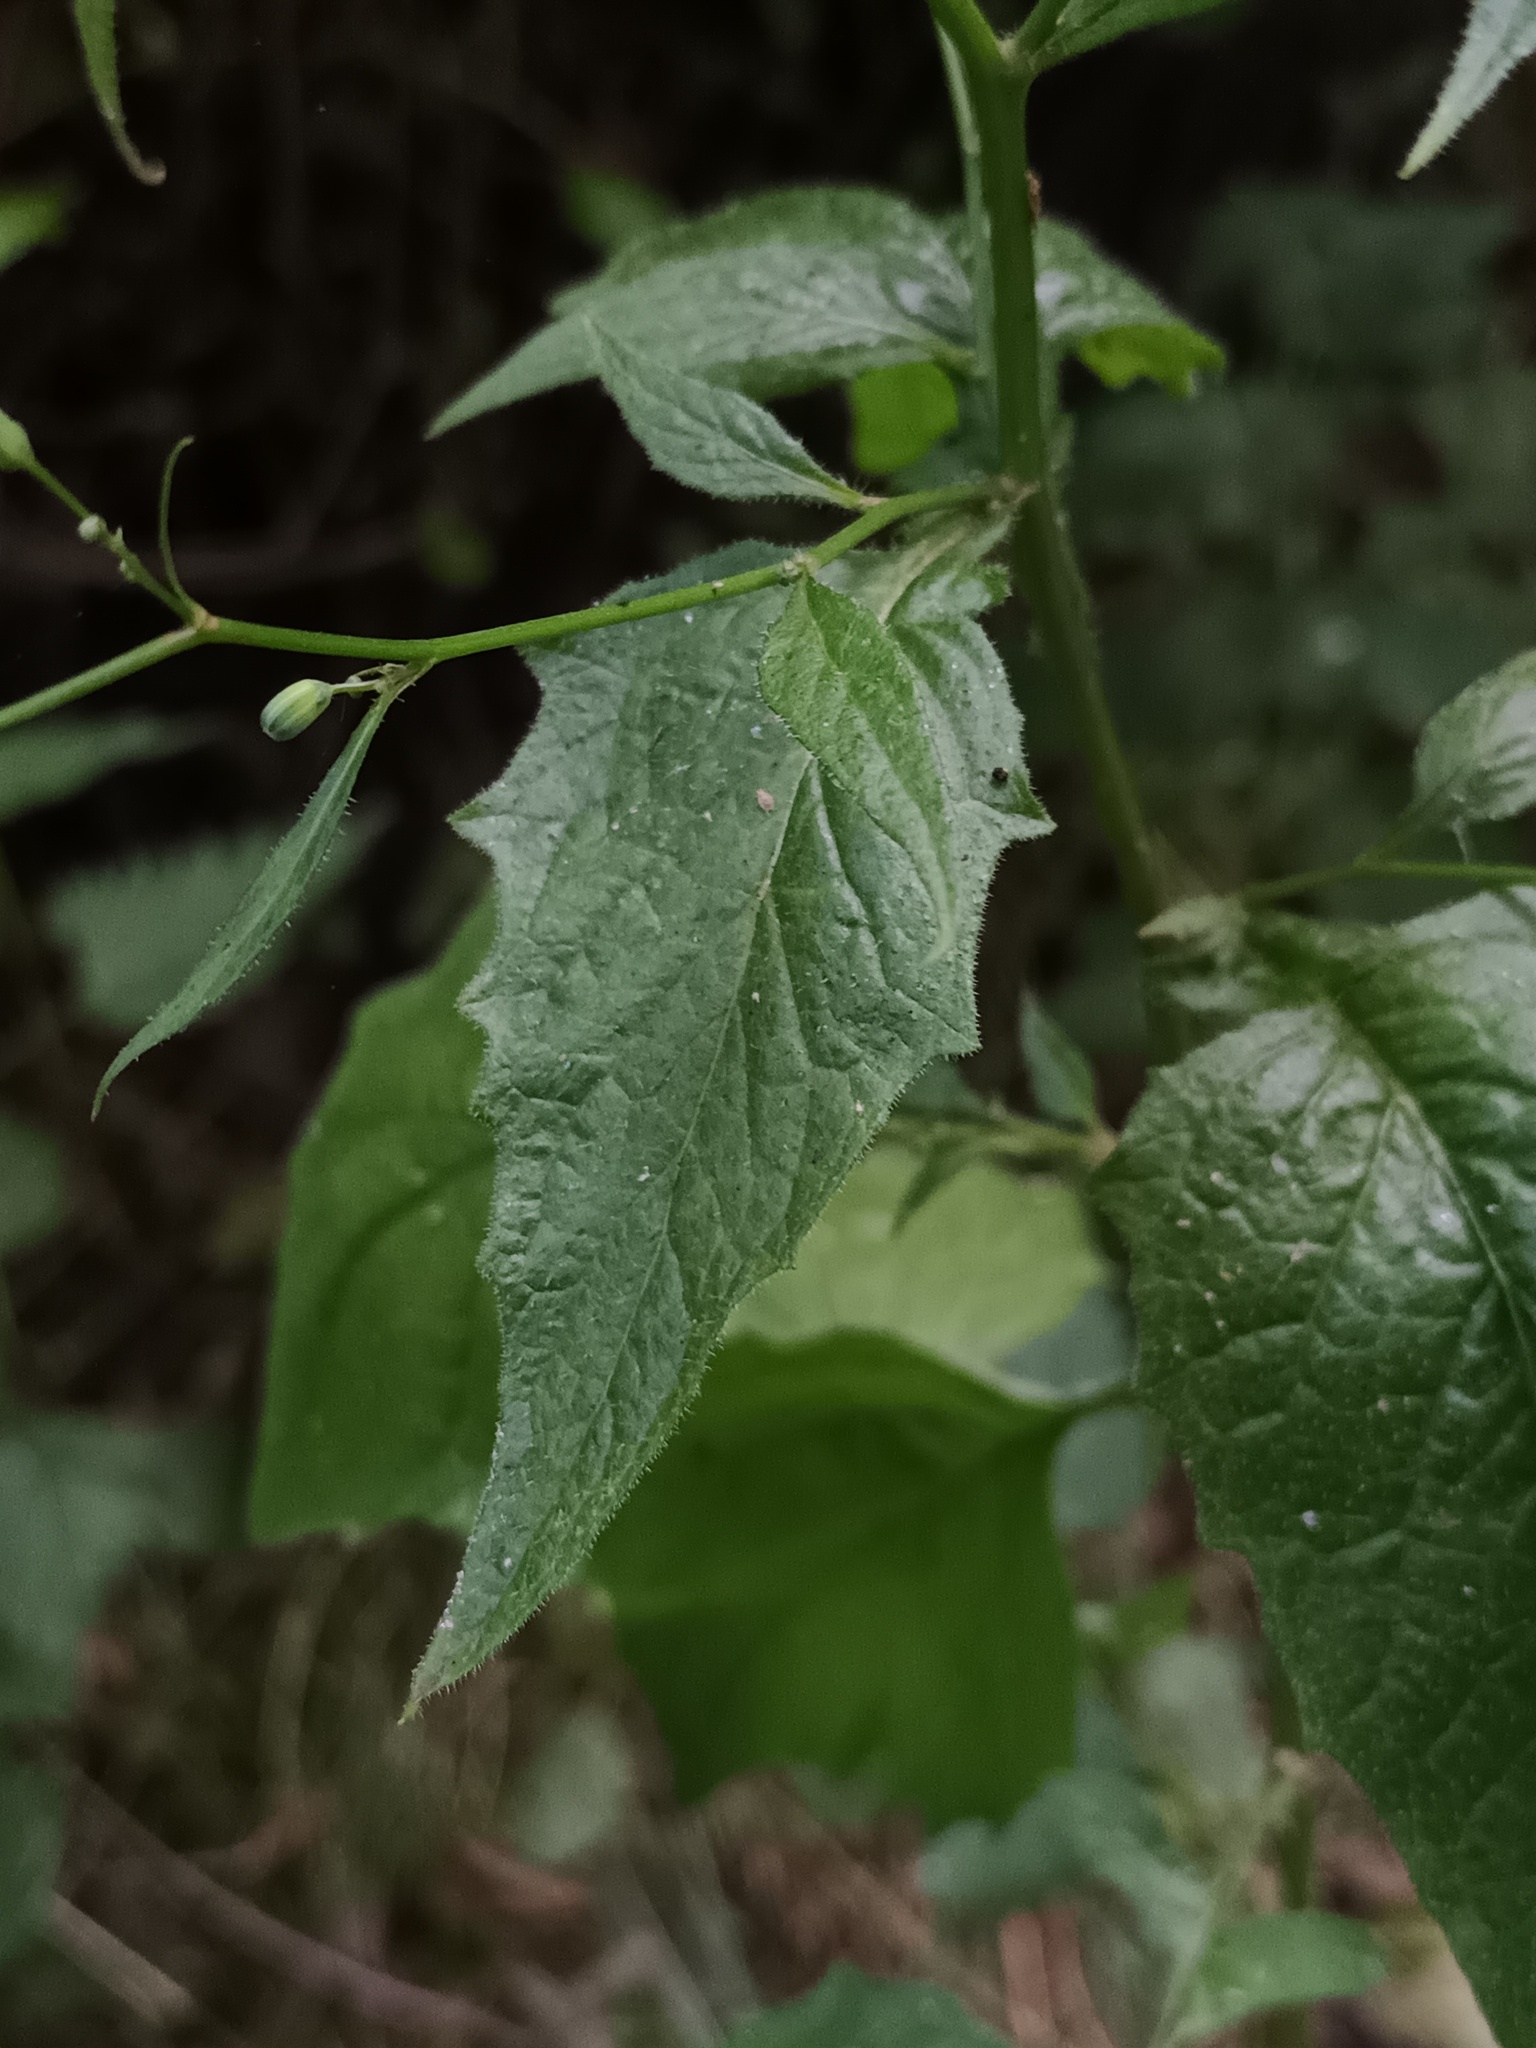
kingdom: Plantae
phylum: Tracheophyta
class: Magnoliopsida
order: Asterales
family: Asteraceae
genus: Lapsana
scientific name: Lapsana communis
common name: Nipplewort
